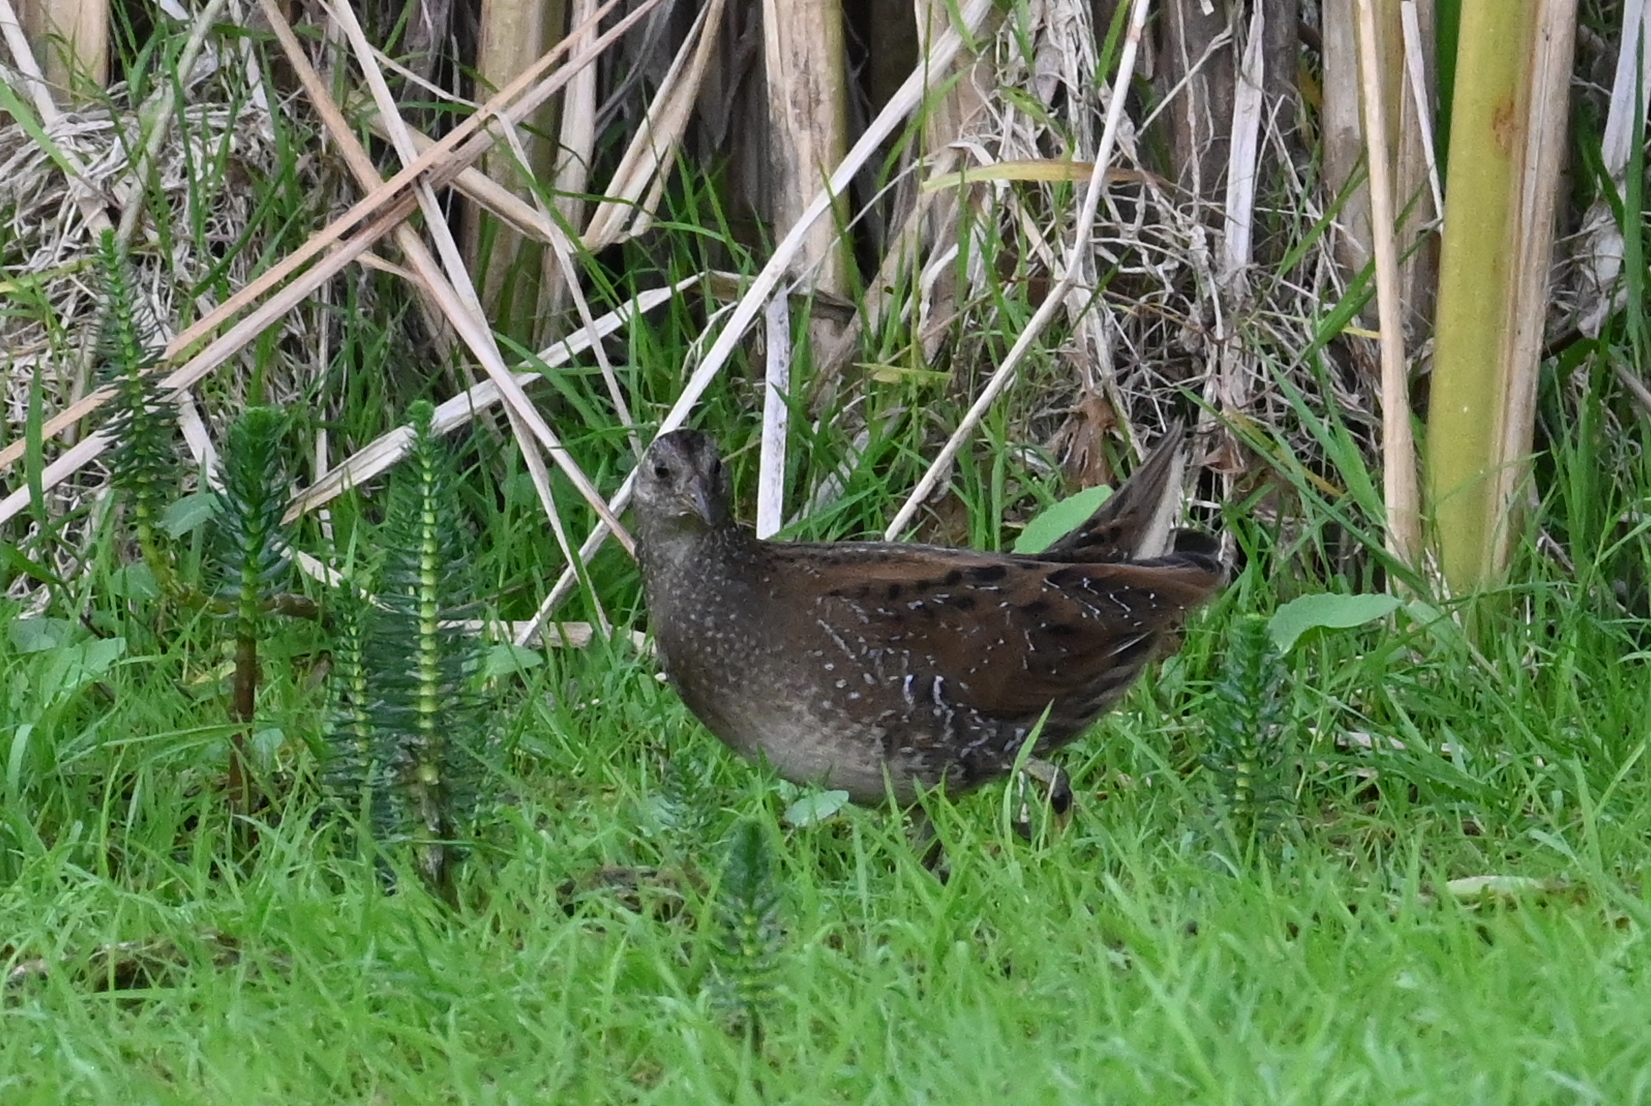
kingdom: Animalia
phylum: Chordata
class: Aves
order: Gruiformes
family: Rallidae
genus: Porzana
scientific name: Porzana porzana
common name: Spotted crake
